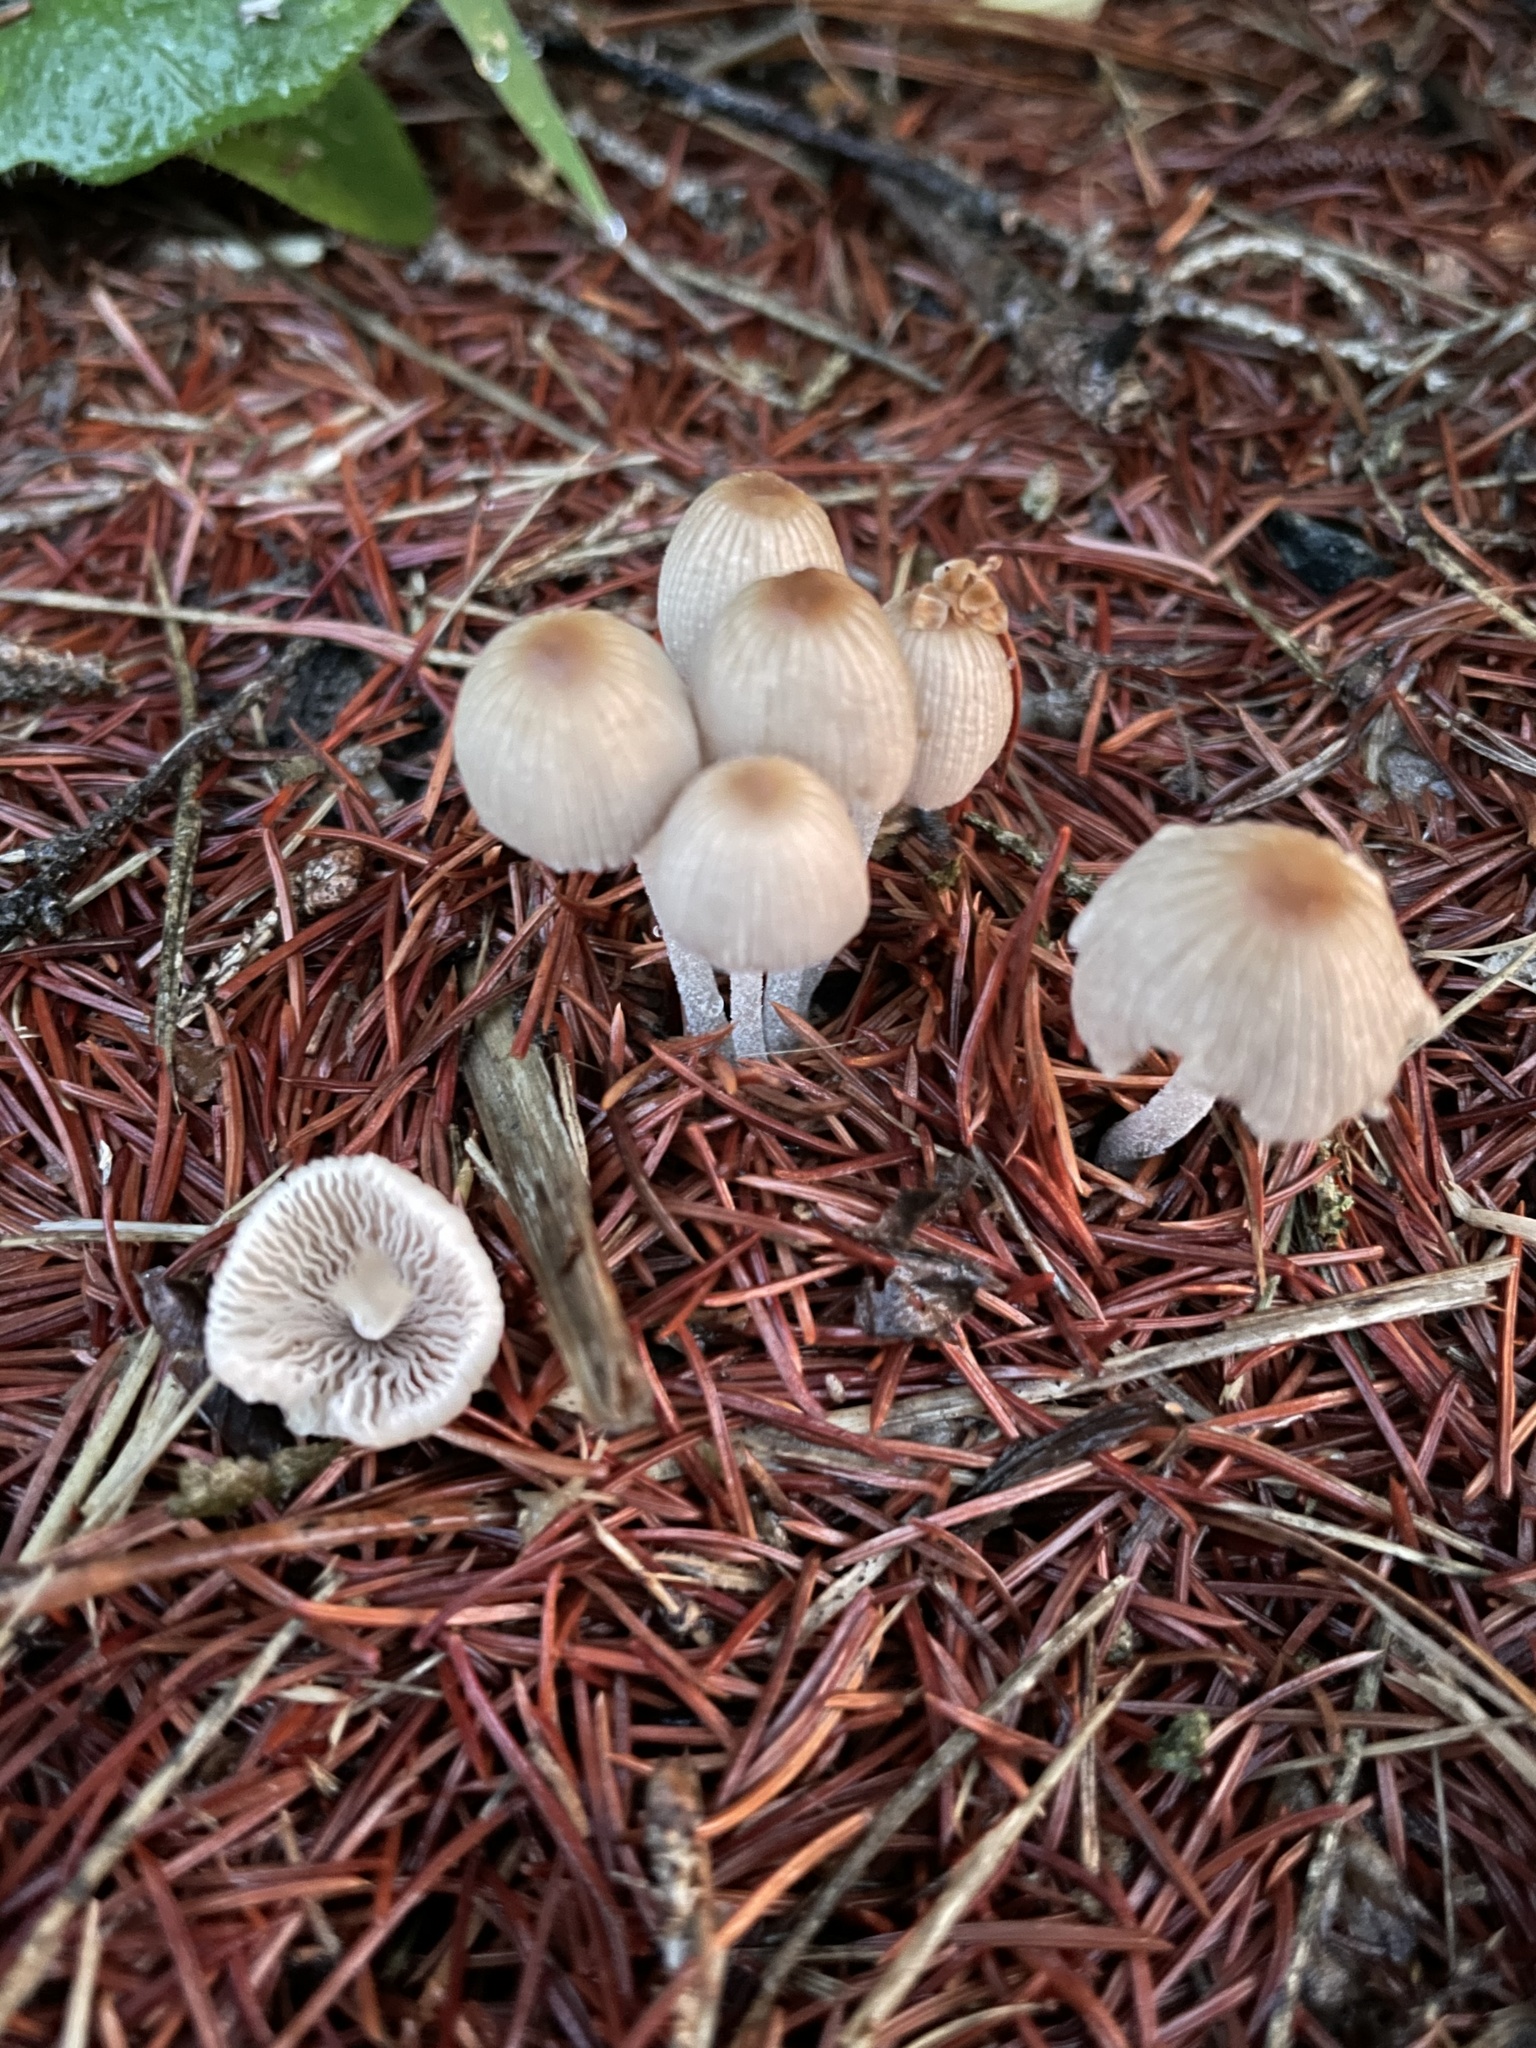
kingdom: Fungi
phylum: Basidiomycota
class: Agaricomycetes
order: Agaricales
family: Psathyrellaceae
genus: Coprinellus
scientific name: Coprinellus
